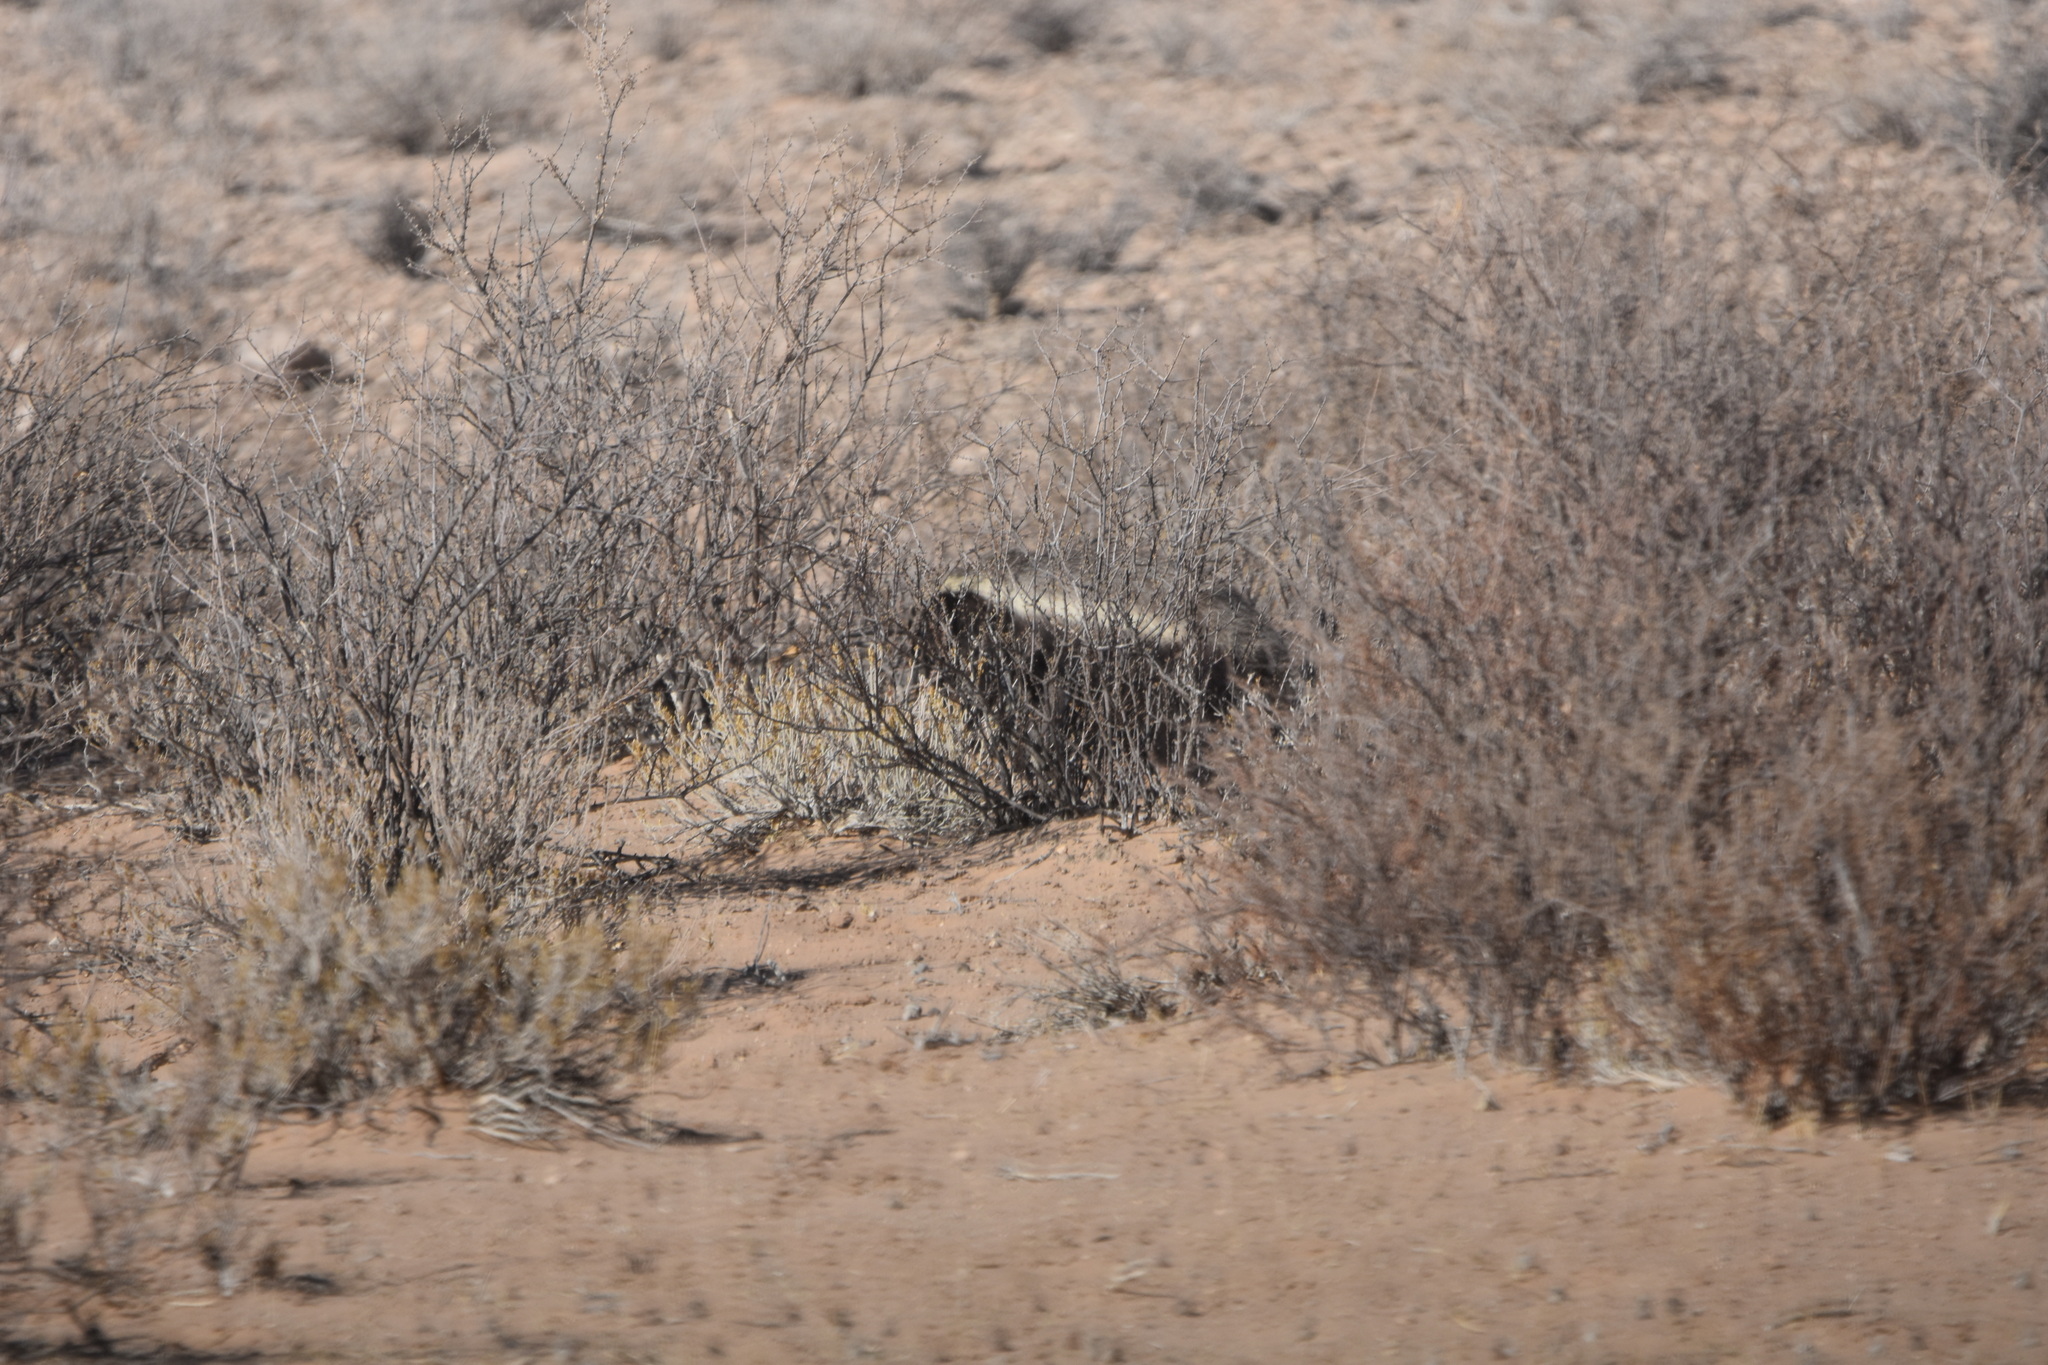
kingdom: Animalia
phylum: Chordata
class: Mammalia
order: Carnivora
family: Mustelidae
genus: Mellivora
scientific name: Mellivora capensis
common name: Honey badger
